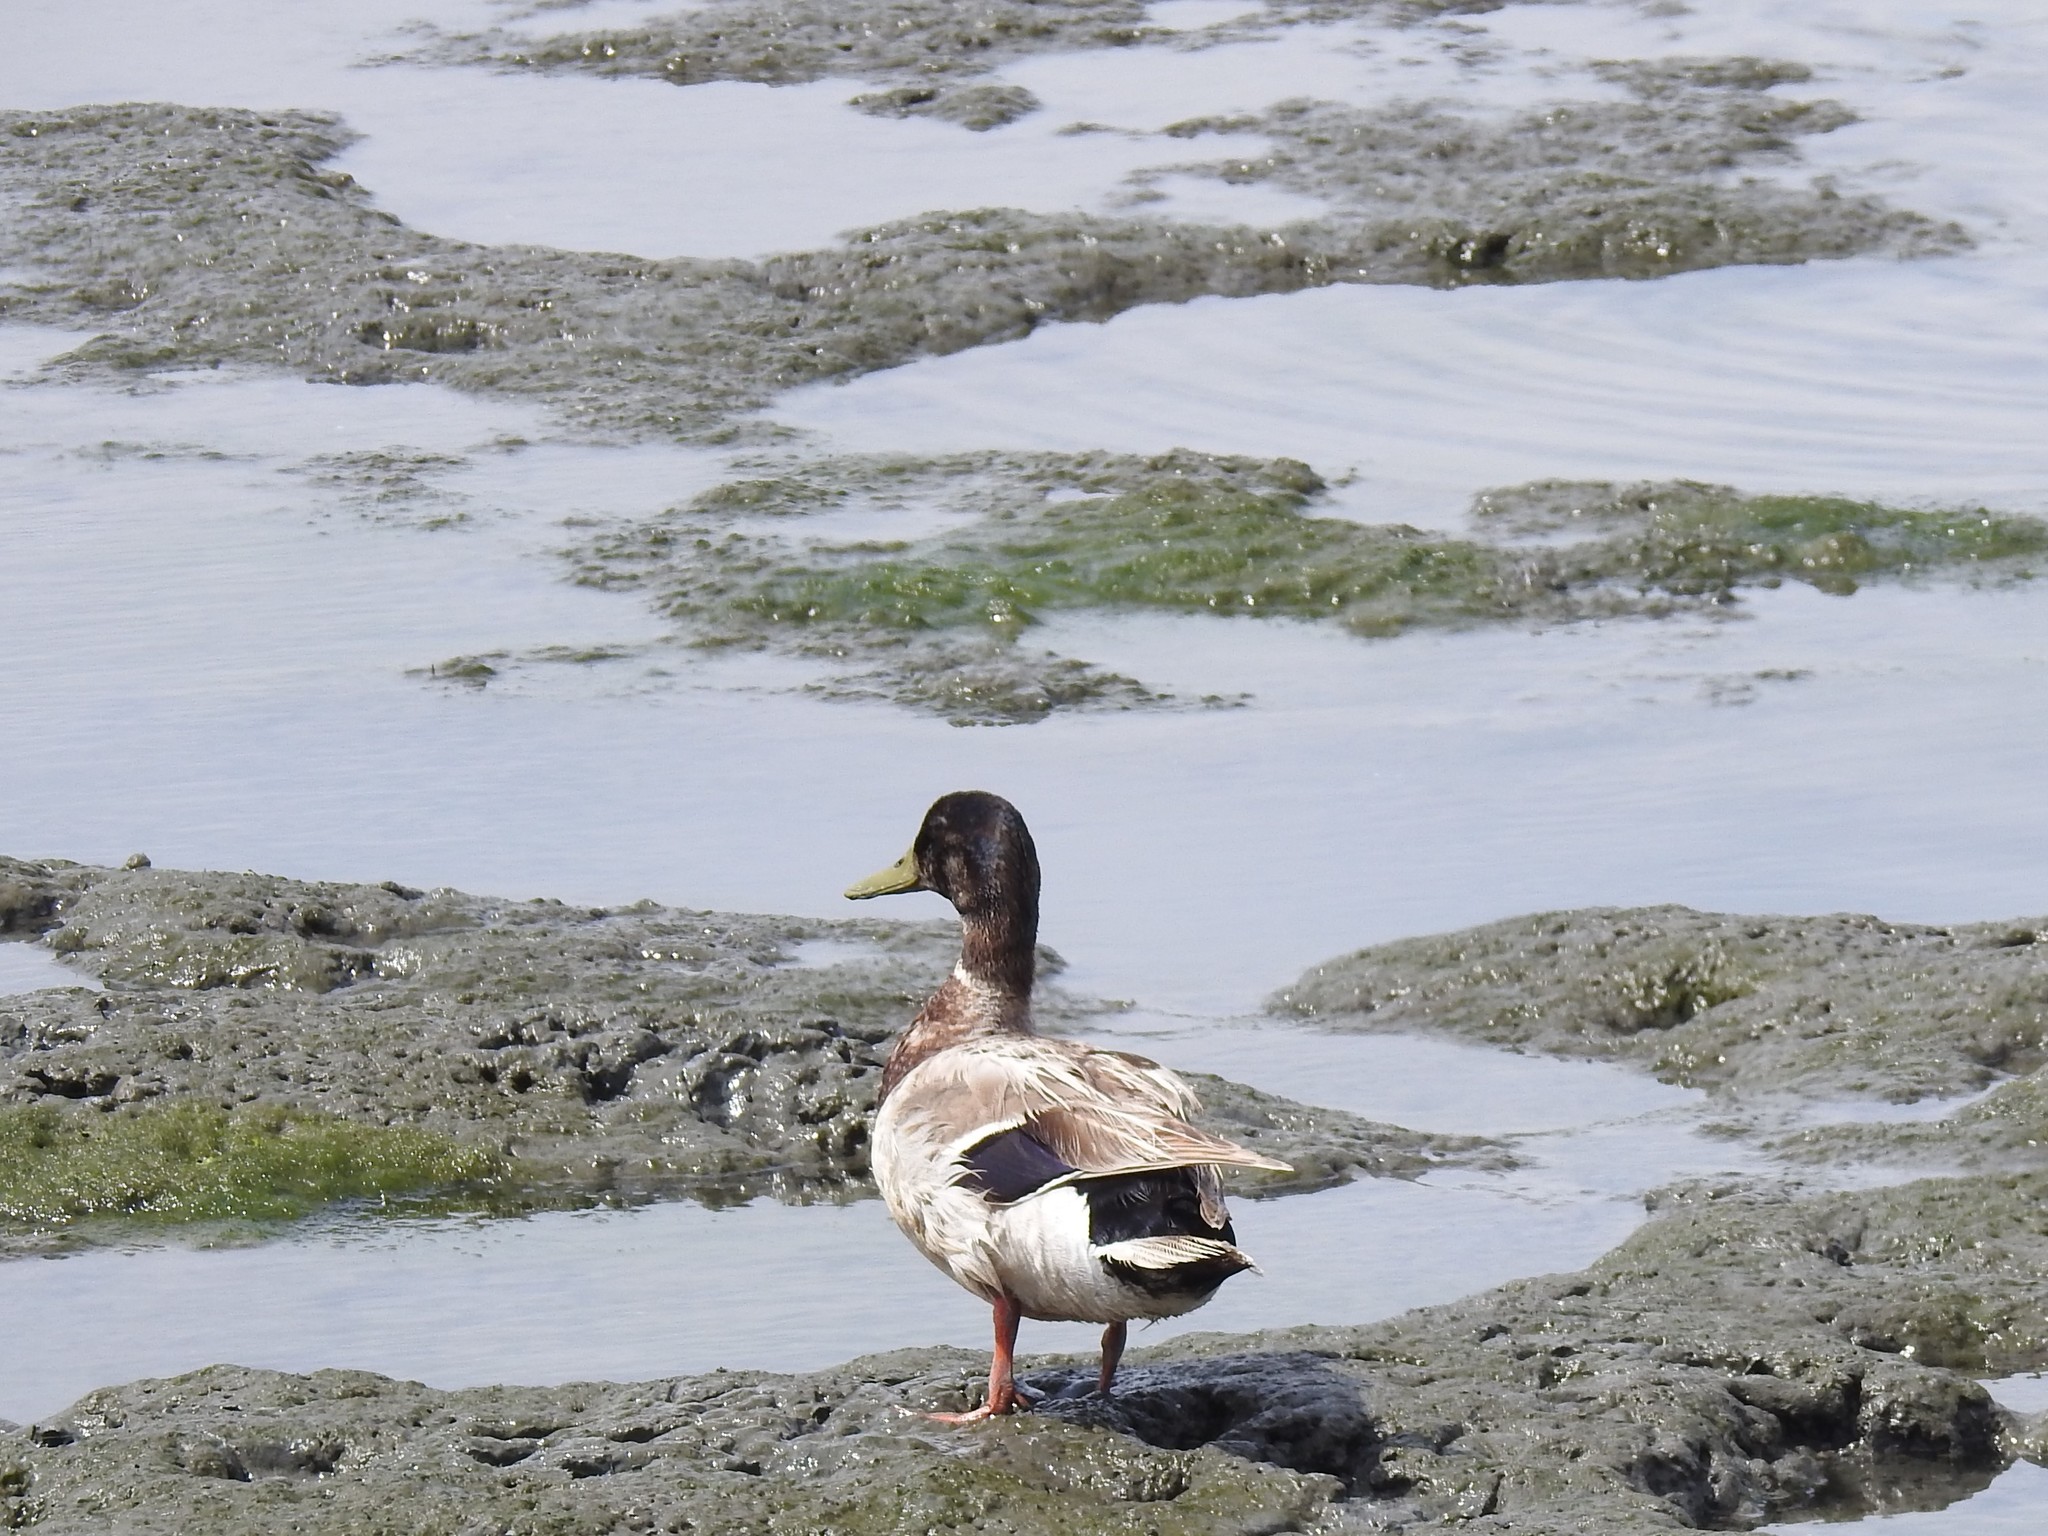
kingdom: Animalia
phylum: Chordata
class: Aves
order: Anseriformes
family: Anatidae
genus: Anas
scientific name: Anas platyrhynchos
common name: Mallard
